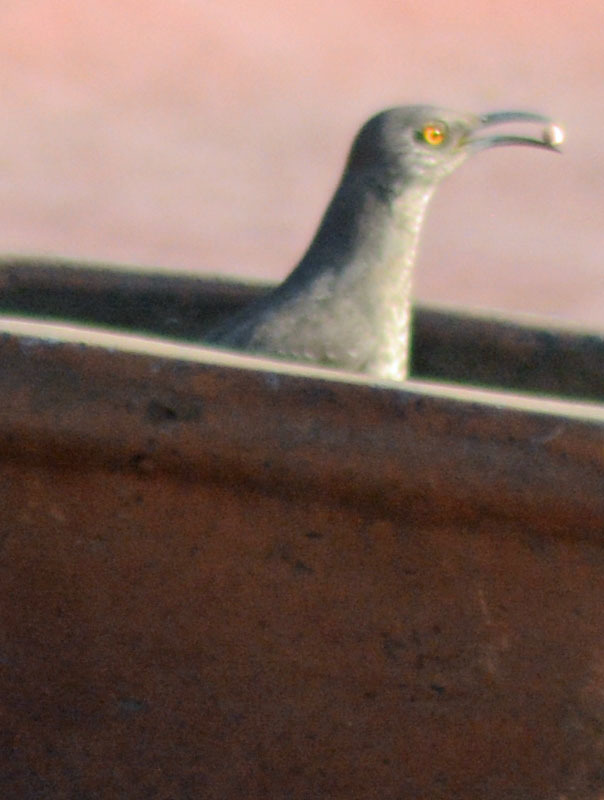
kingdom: Animalia
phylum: Chordata
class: Aves
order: Passeriformes
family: Mimidae
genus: Toxostoma
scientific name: Toxostoma curvirostre
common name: Curve-billed thrasher
